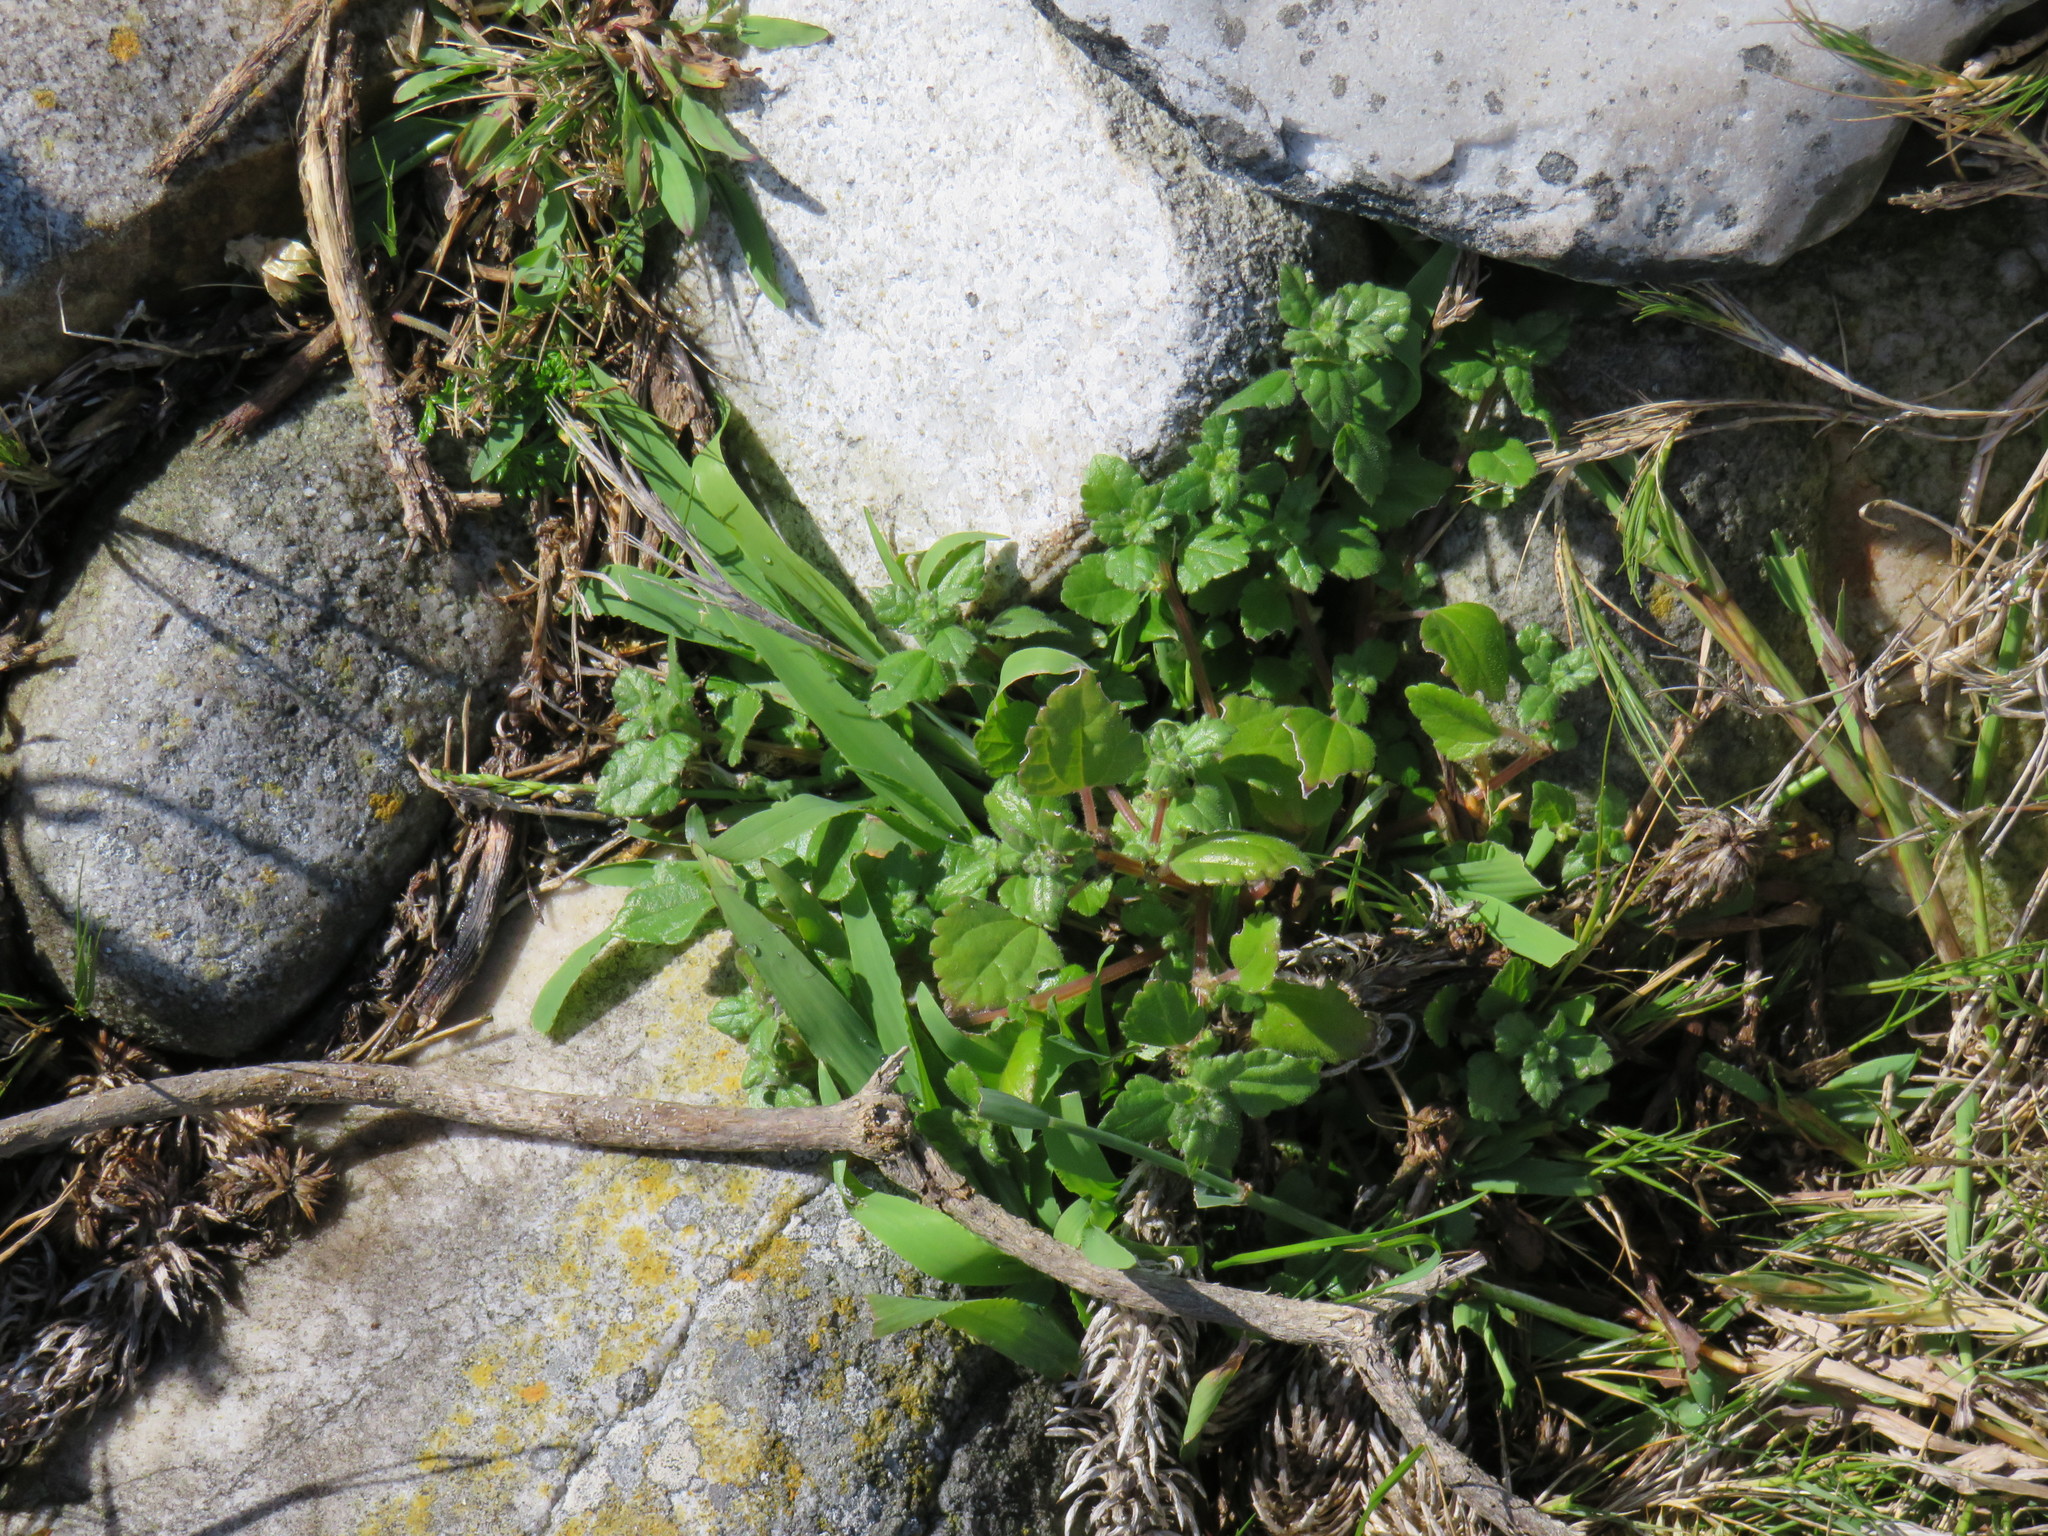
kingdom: Plantae
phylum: Tracheophyta
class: Magnoliopsida
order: Rosales
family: Urticaceae
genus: Didymodoxa
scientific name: Didymodoxa capensis
